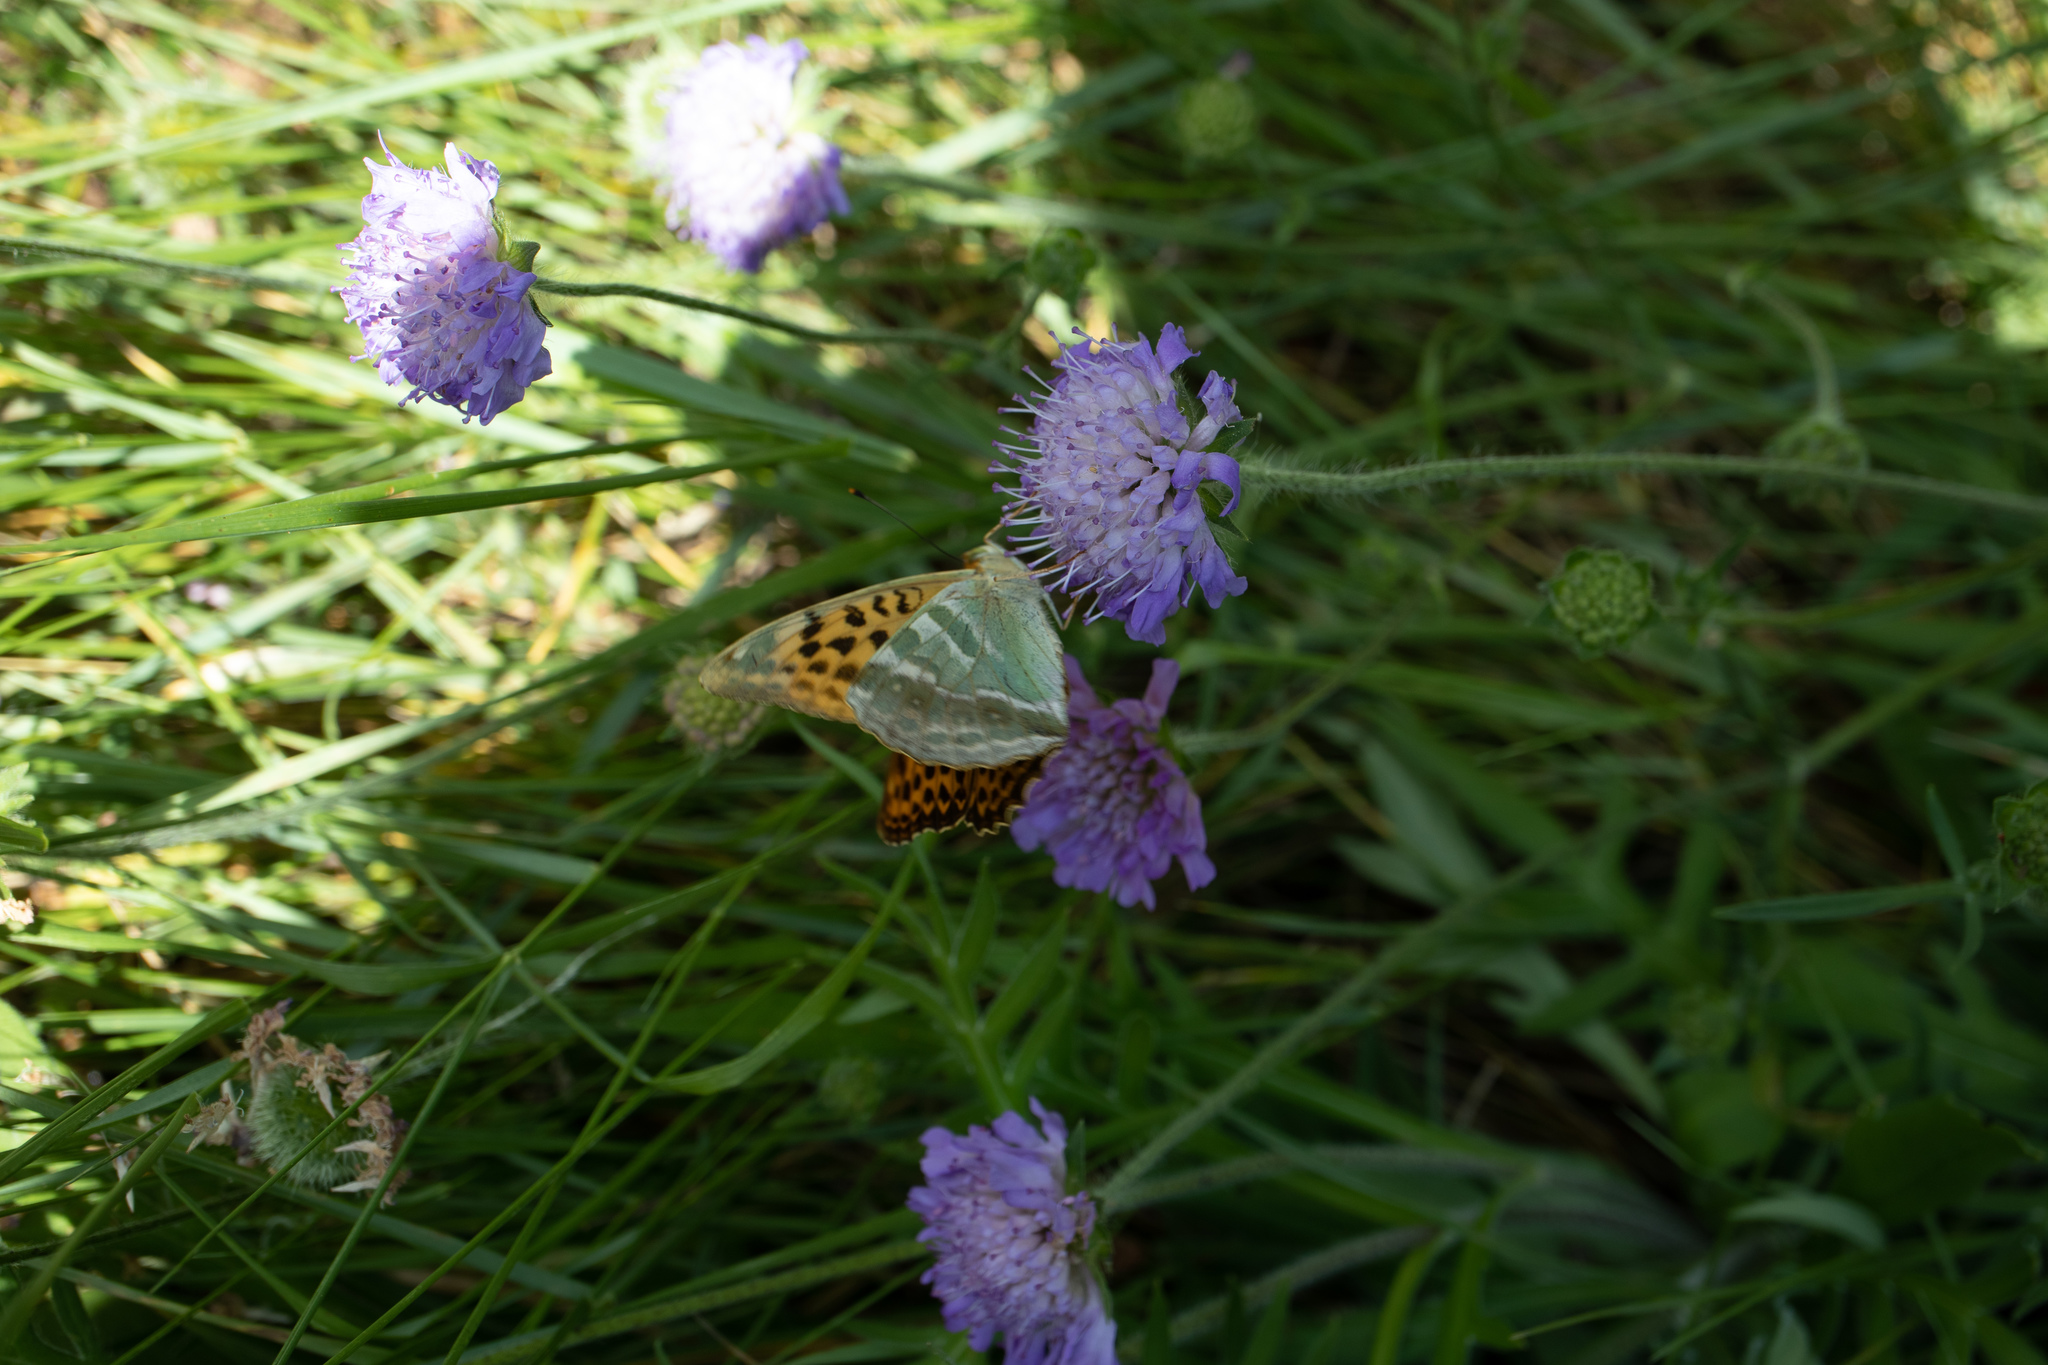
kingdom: Animalia
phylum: Arthropoda
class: Insecta
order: Lepidoptera
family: Nymphalidae
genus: Argynnis
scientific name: Argynnis paphia
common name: Silver-washed fritillary
